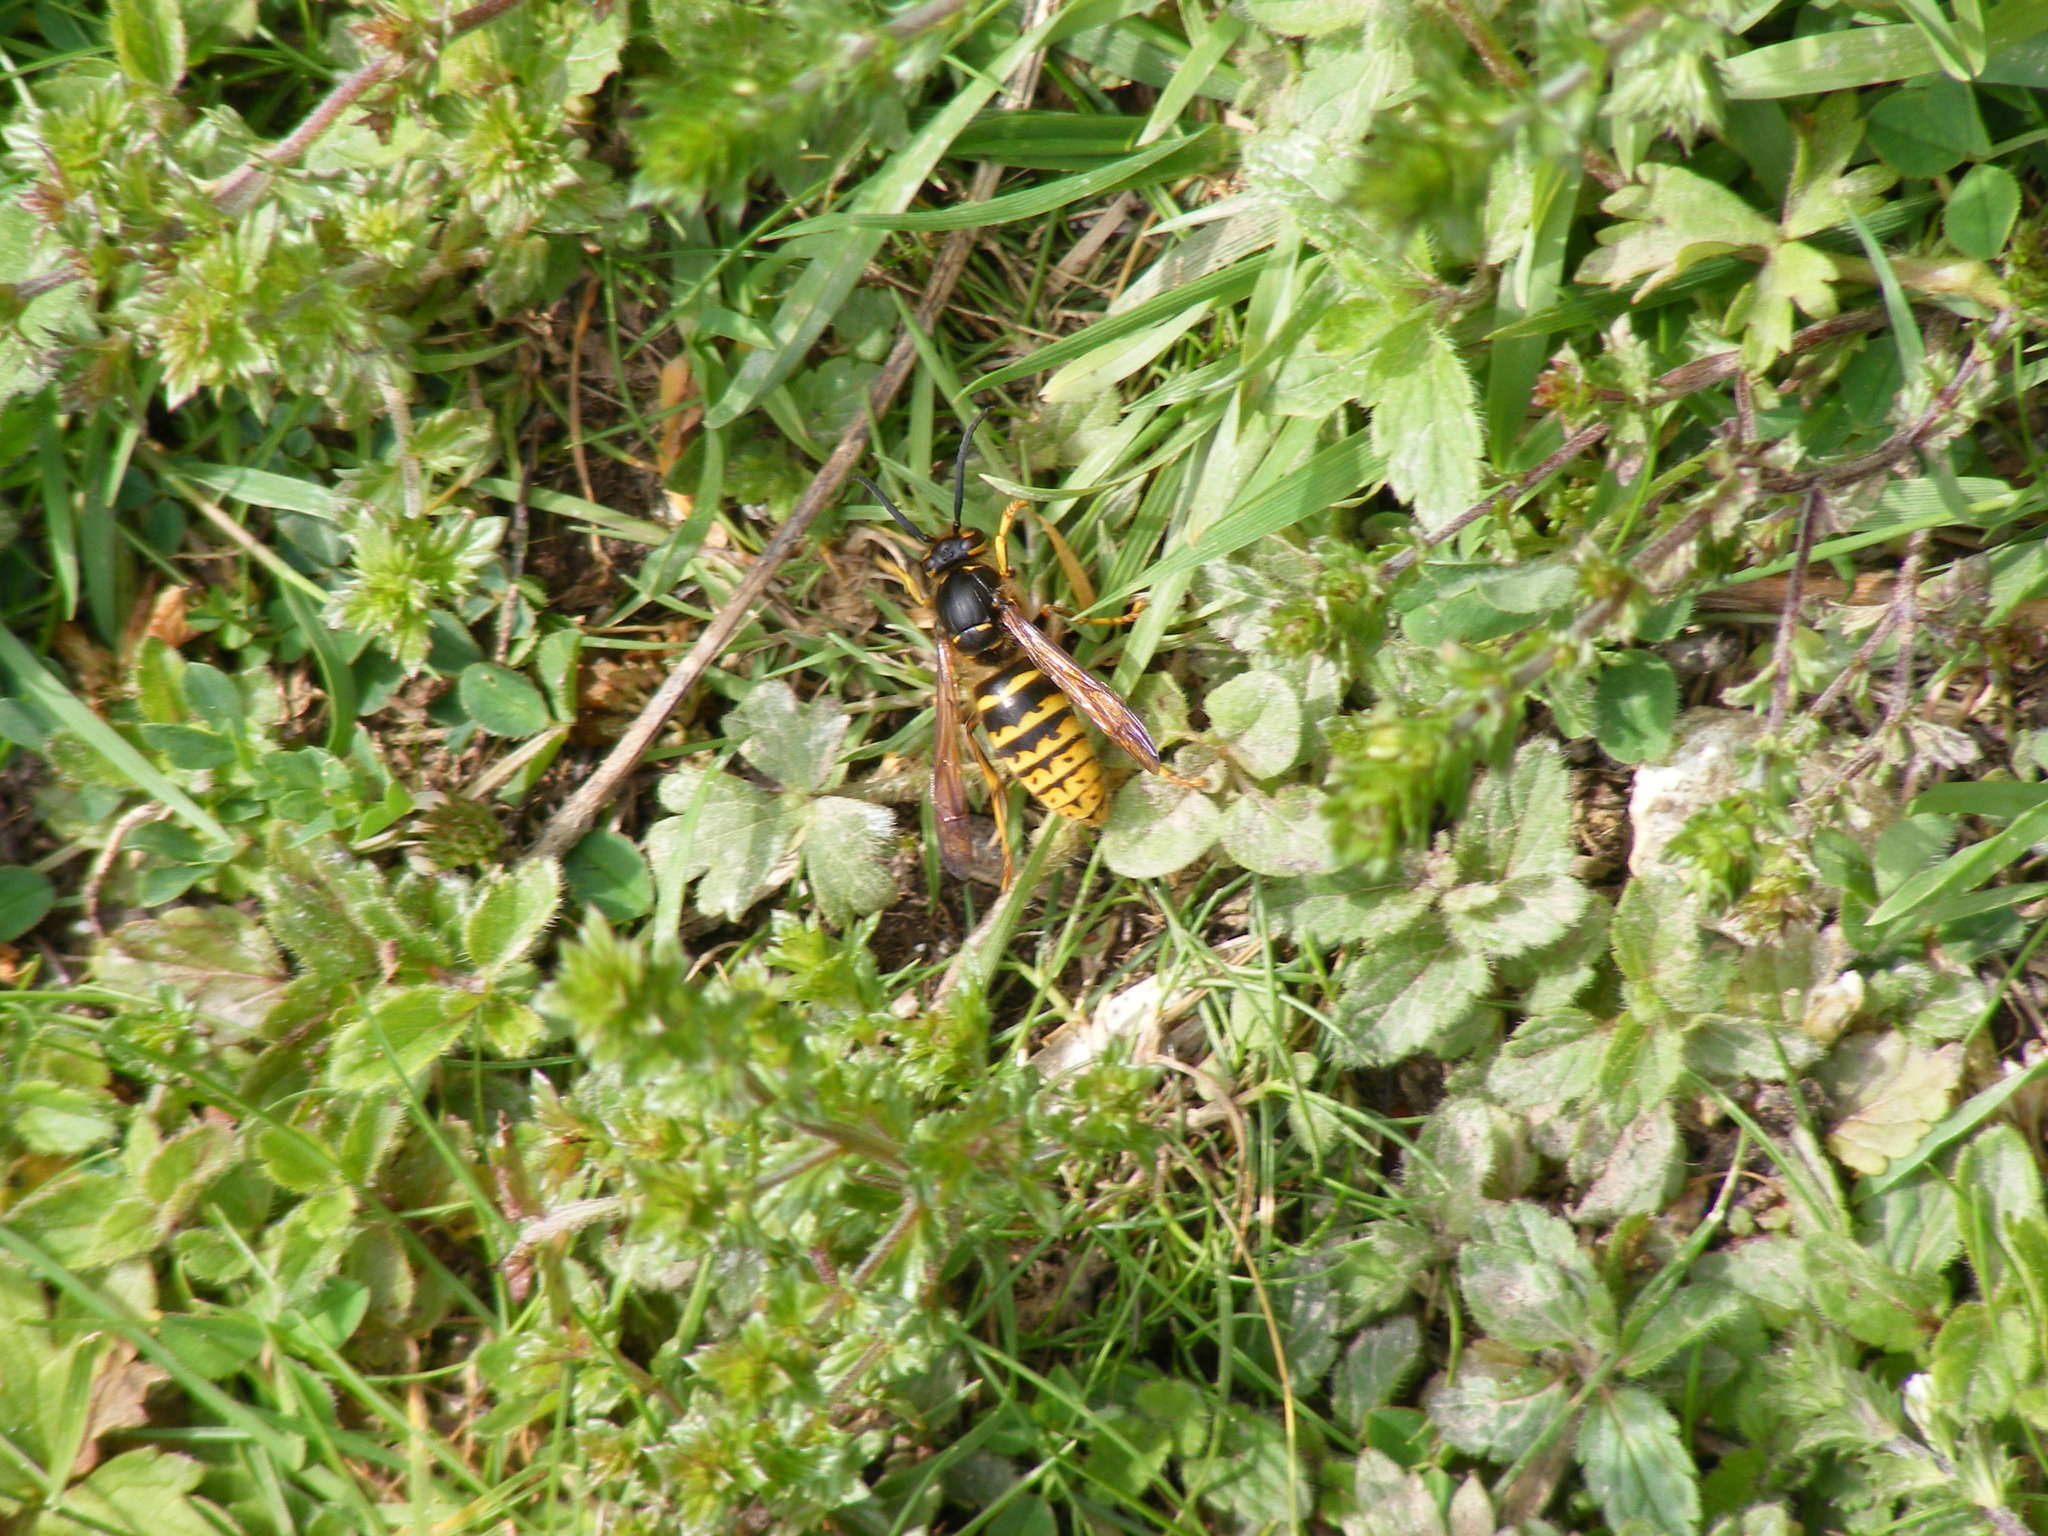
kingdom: Animalia
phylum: Arthropoda
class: Insecta
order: Hymenoptera
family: Vespidae
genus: Dolichovespula
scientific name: Dolichovespula media
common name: Median wasp
